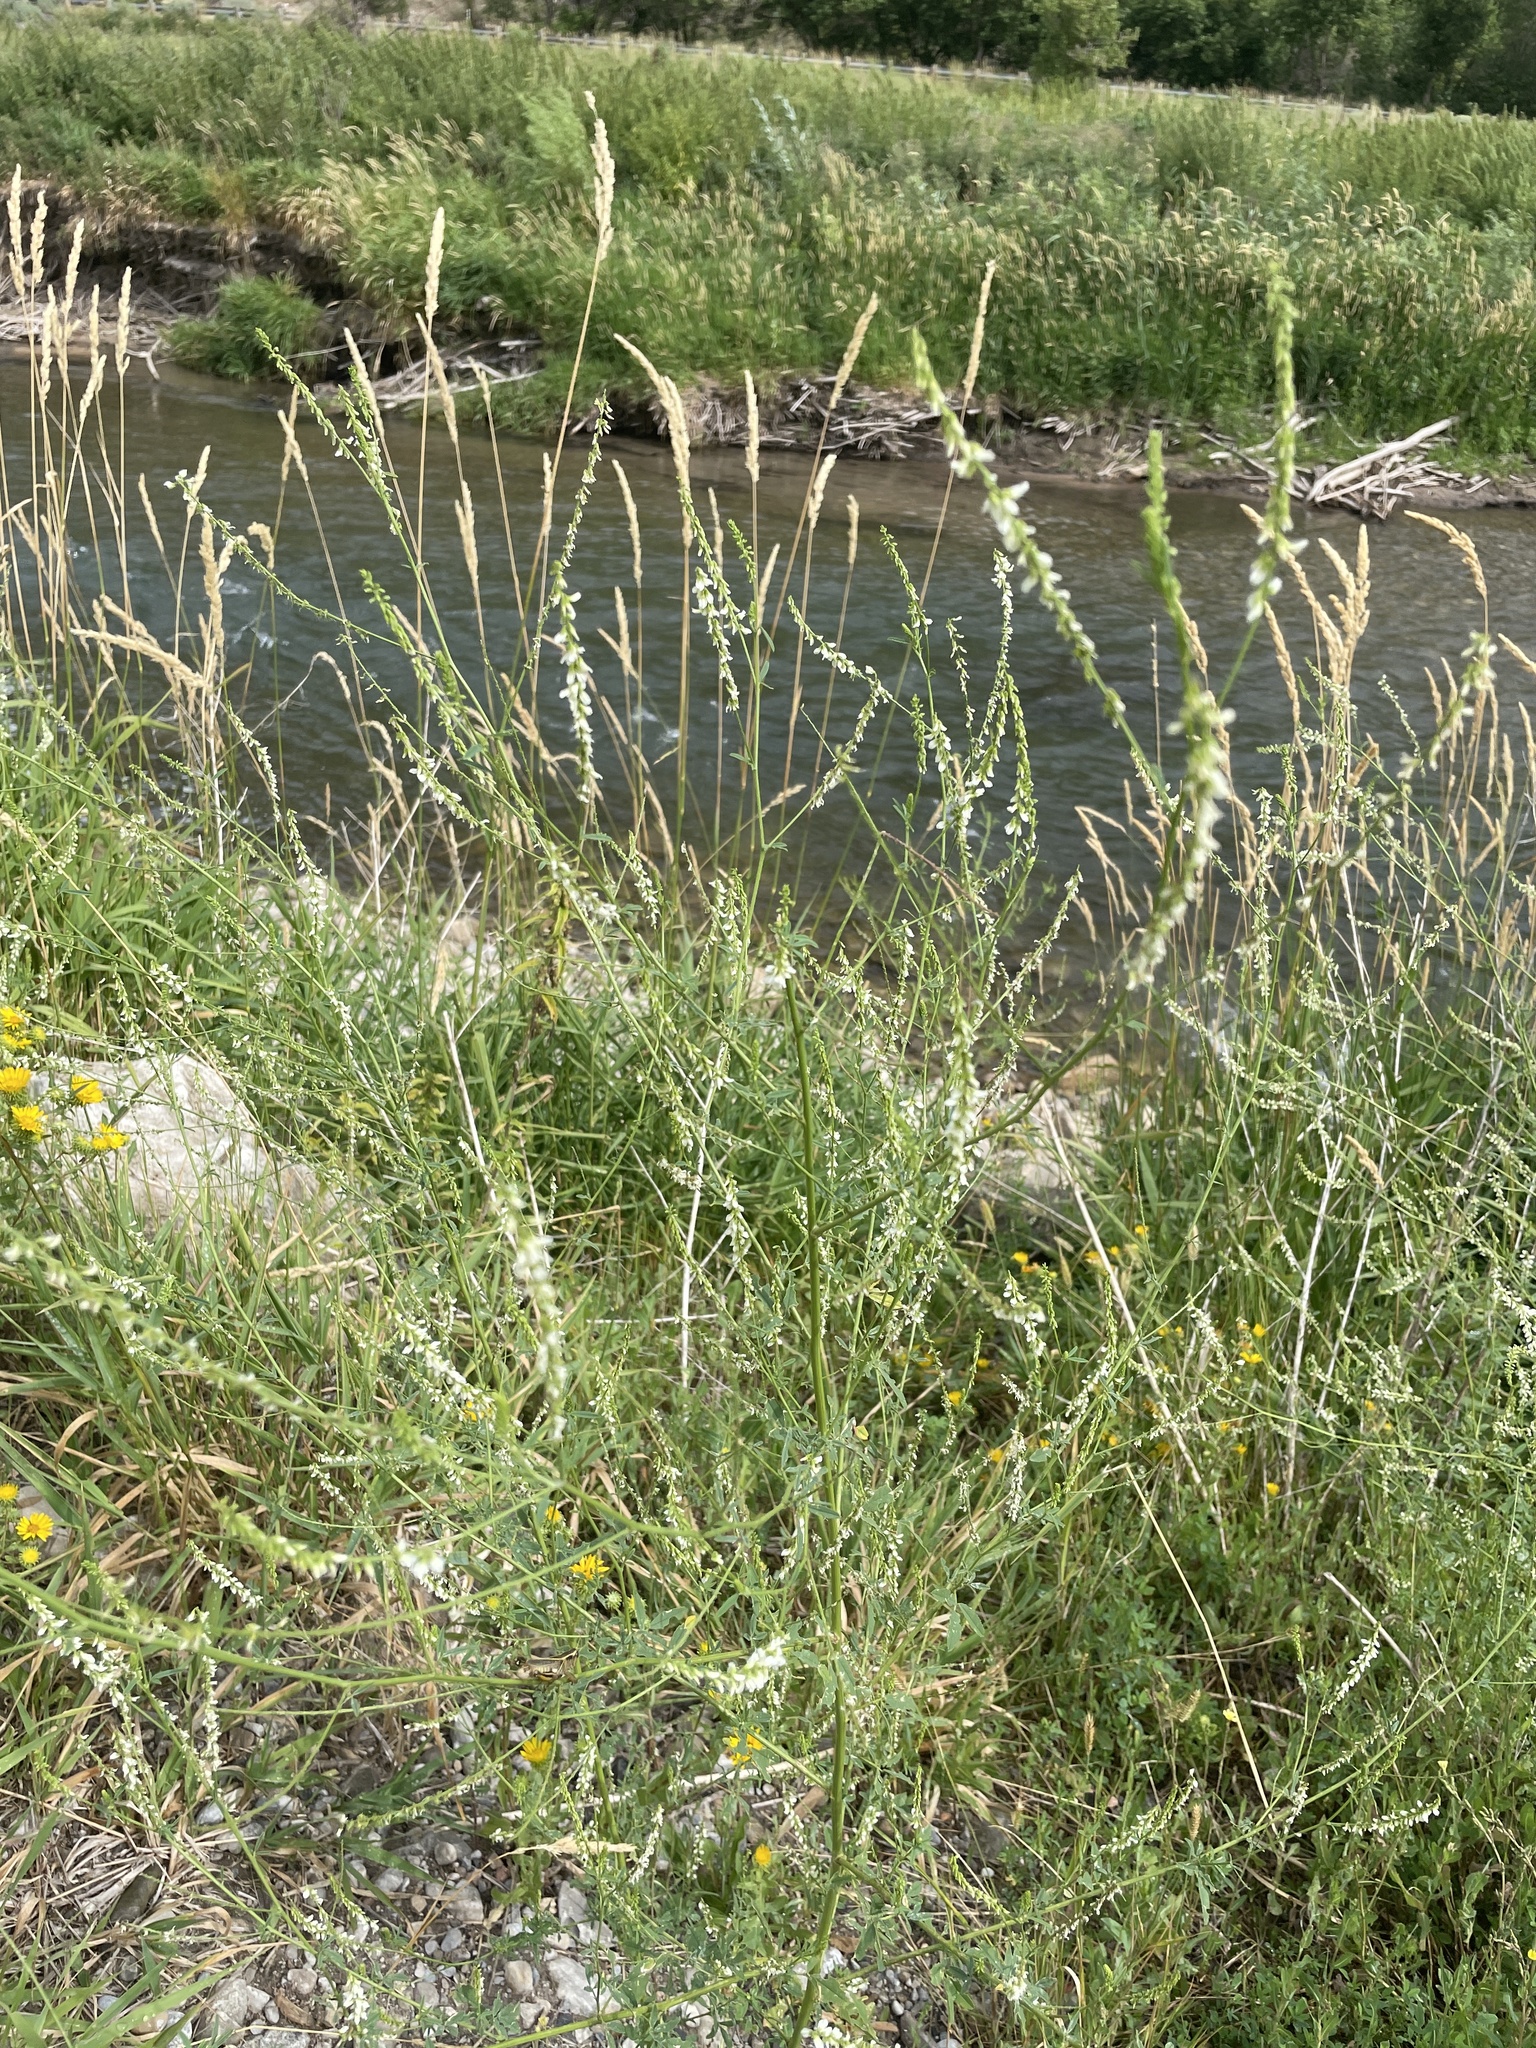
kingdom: Plantae
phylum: Tracheophyta
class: Magnoliopsida
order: Fabales
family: Fabaceae
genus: Melilotus
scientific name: Melilotus albus
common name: White melilot
